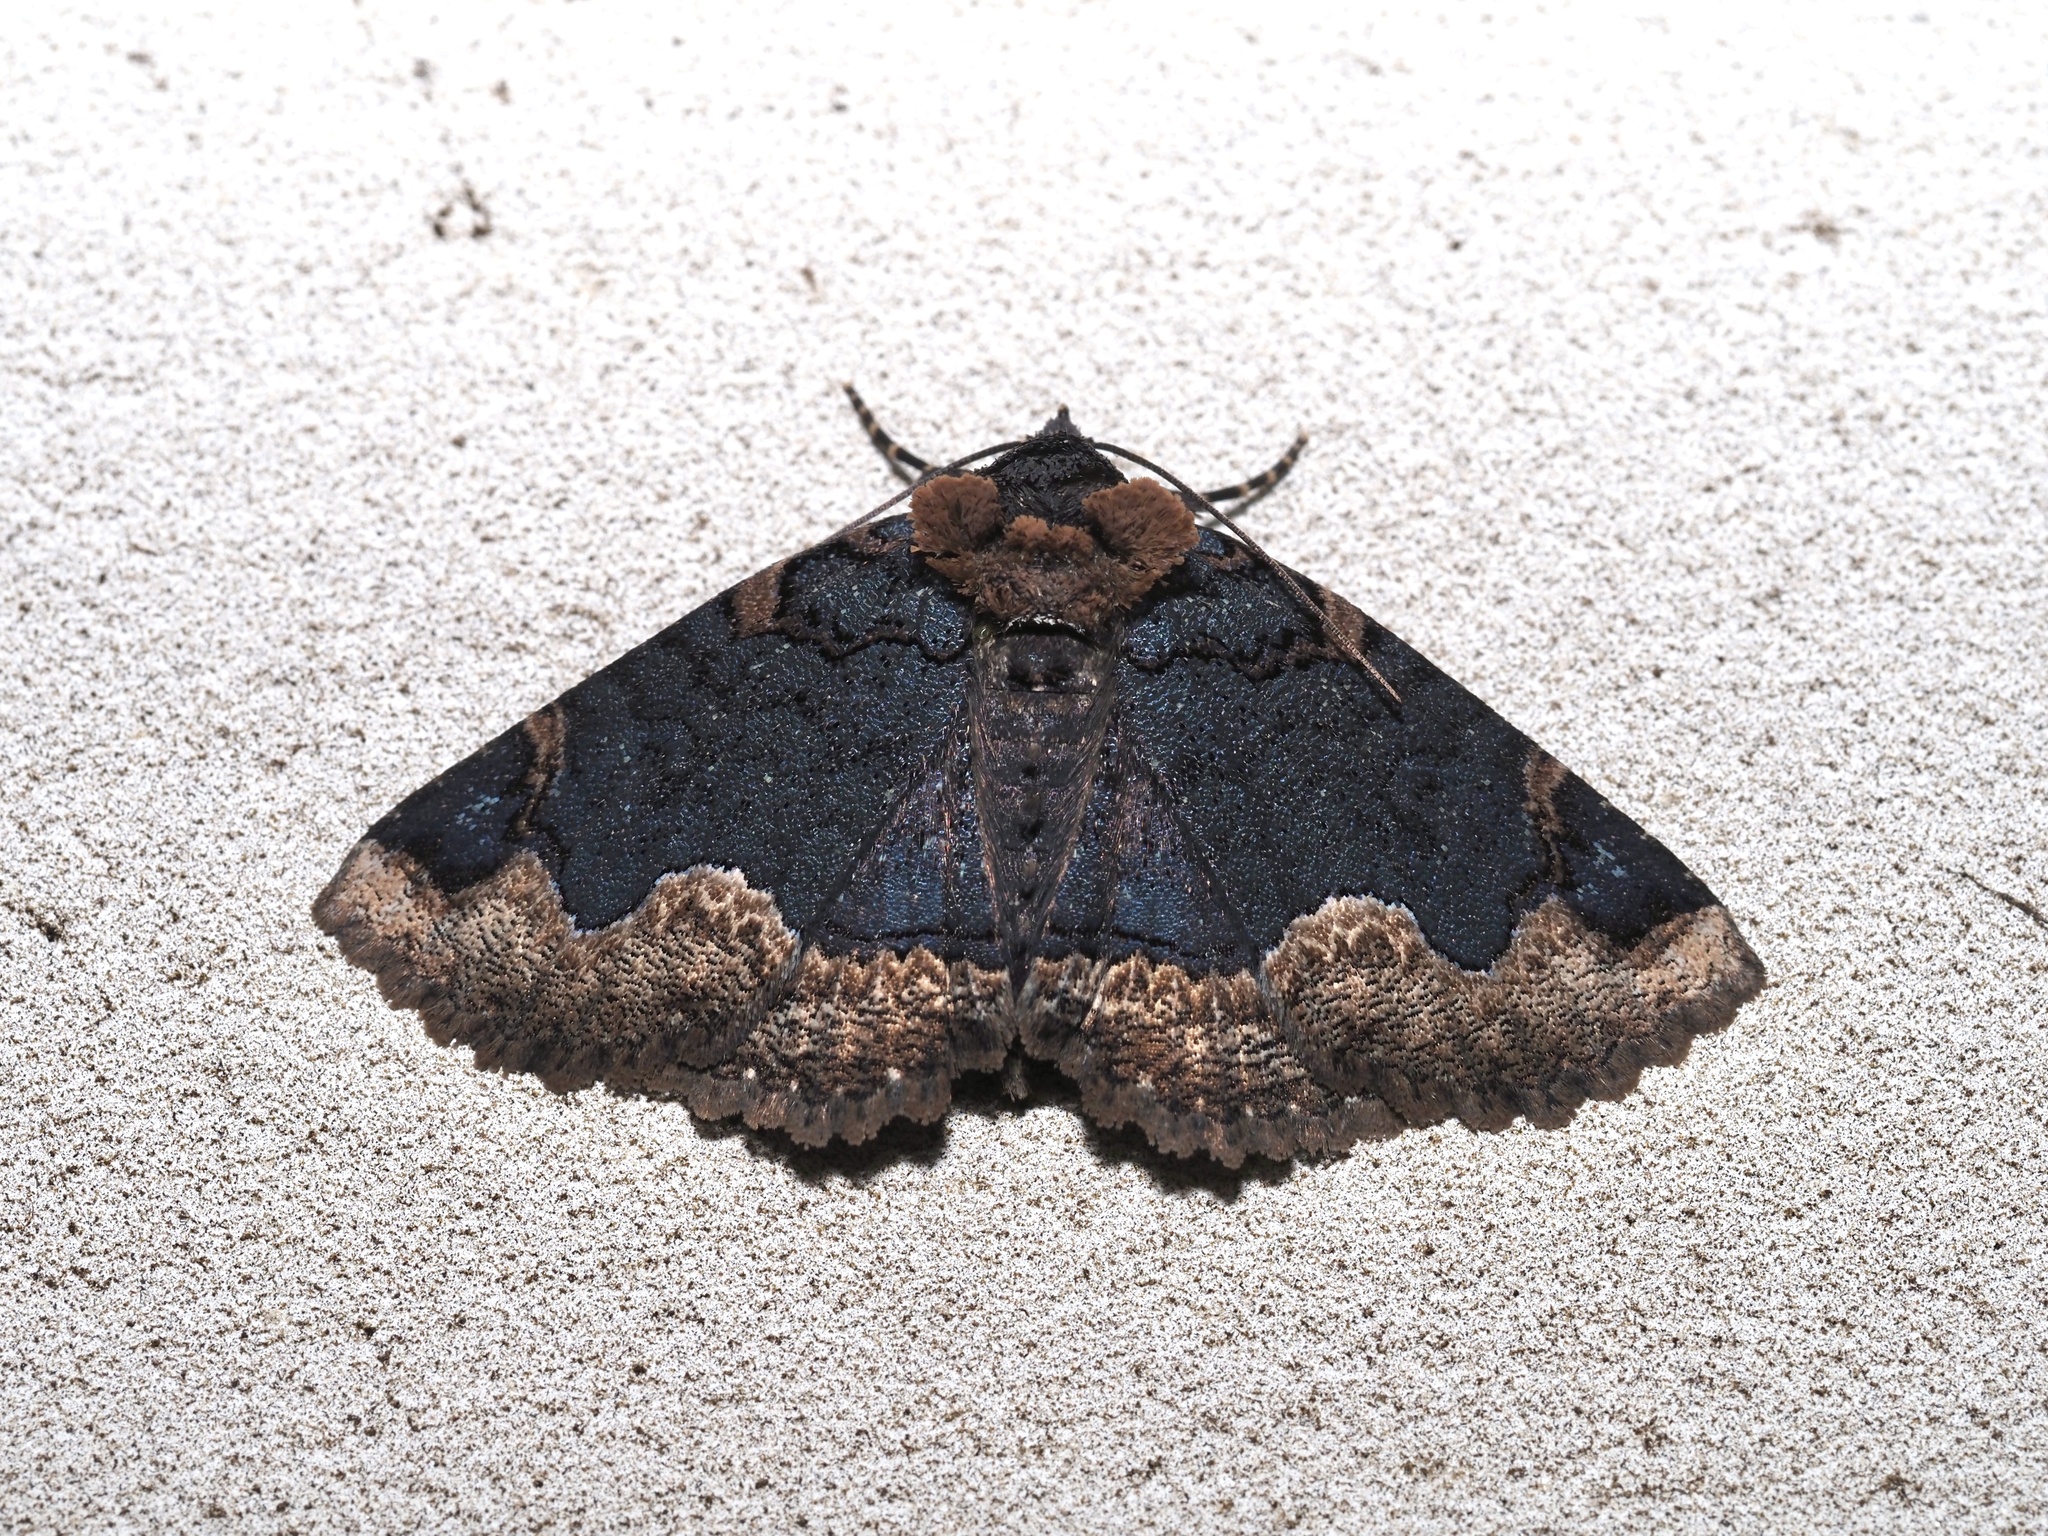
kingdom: Animalia
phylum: Arthropoda
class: Insecta
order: Lepidoptera
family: Erebidae
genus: Zale
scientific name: Zale horrida
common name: Horrid zale moth
